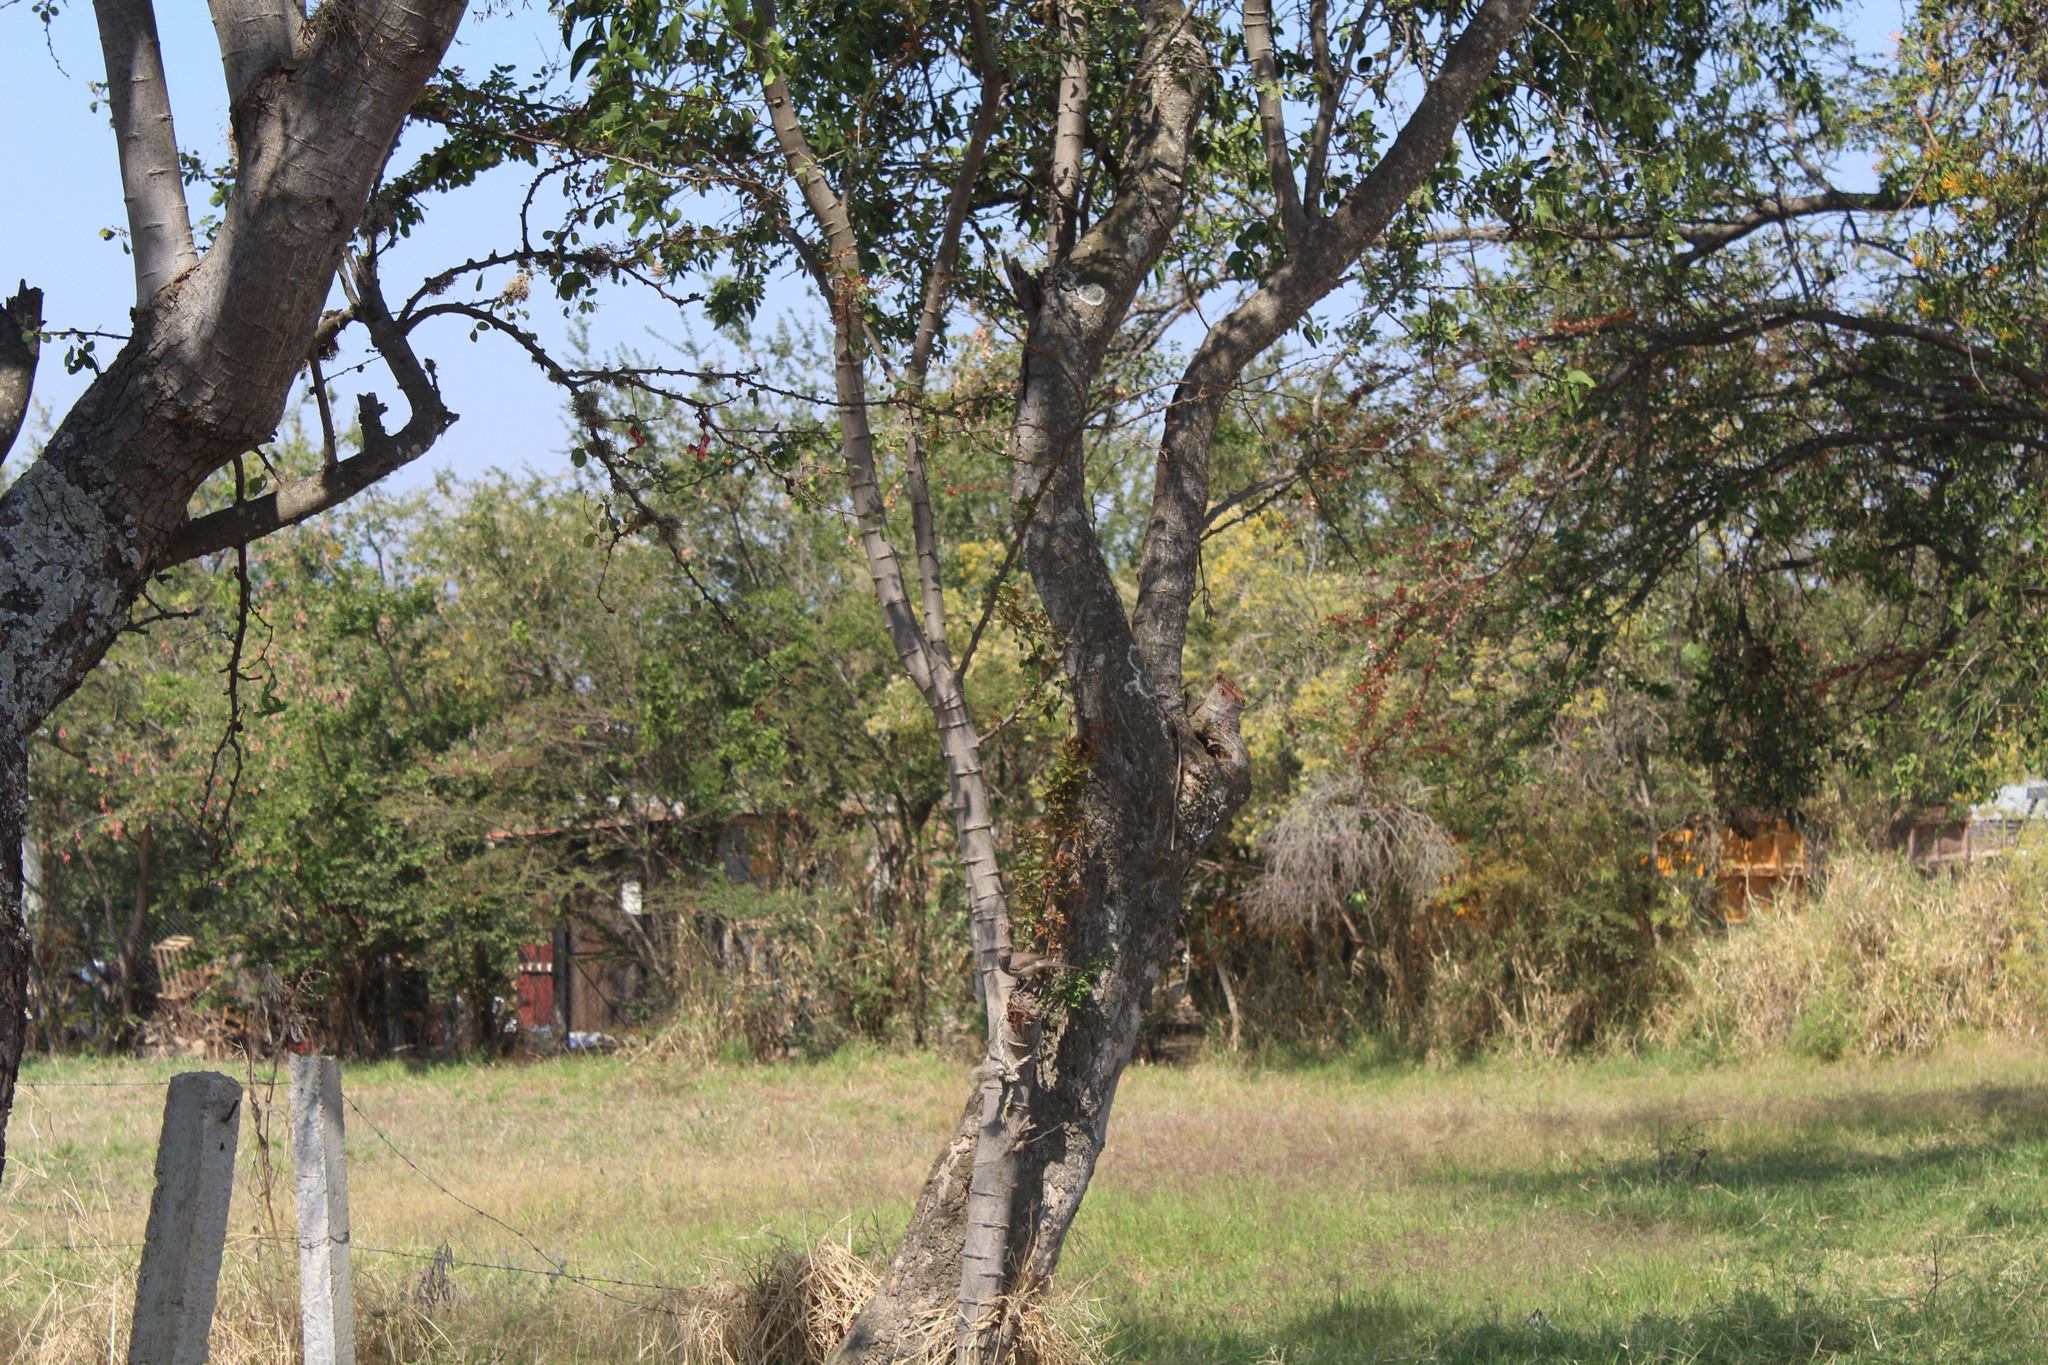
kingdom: Animalia
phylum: Chordata
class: Aves
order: Passeriformes
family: Mimidae
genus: Toxostoma
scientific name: Toxostoma curvirostre
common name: Curve-billed thrasher
